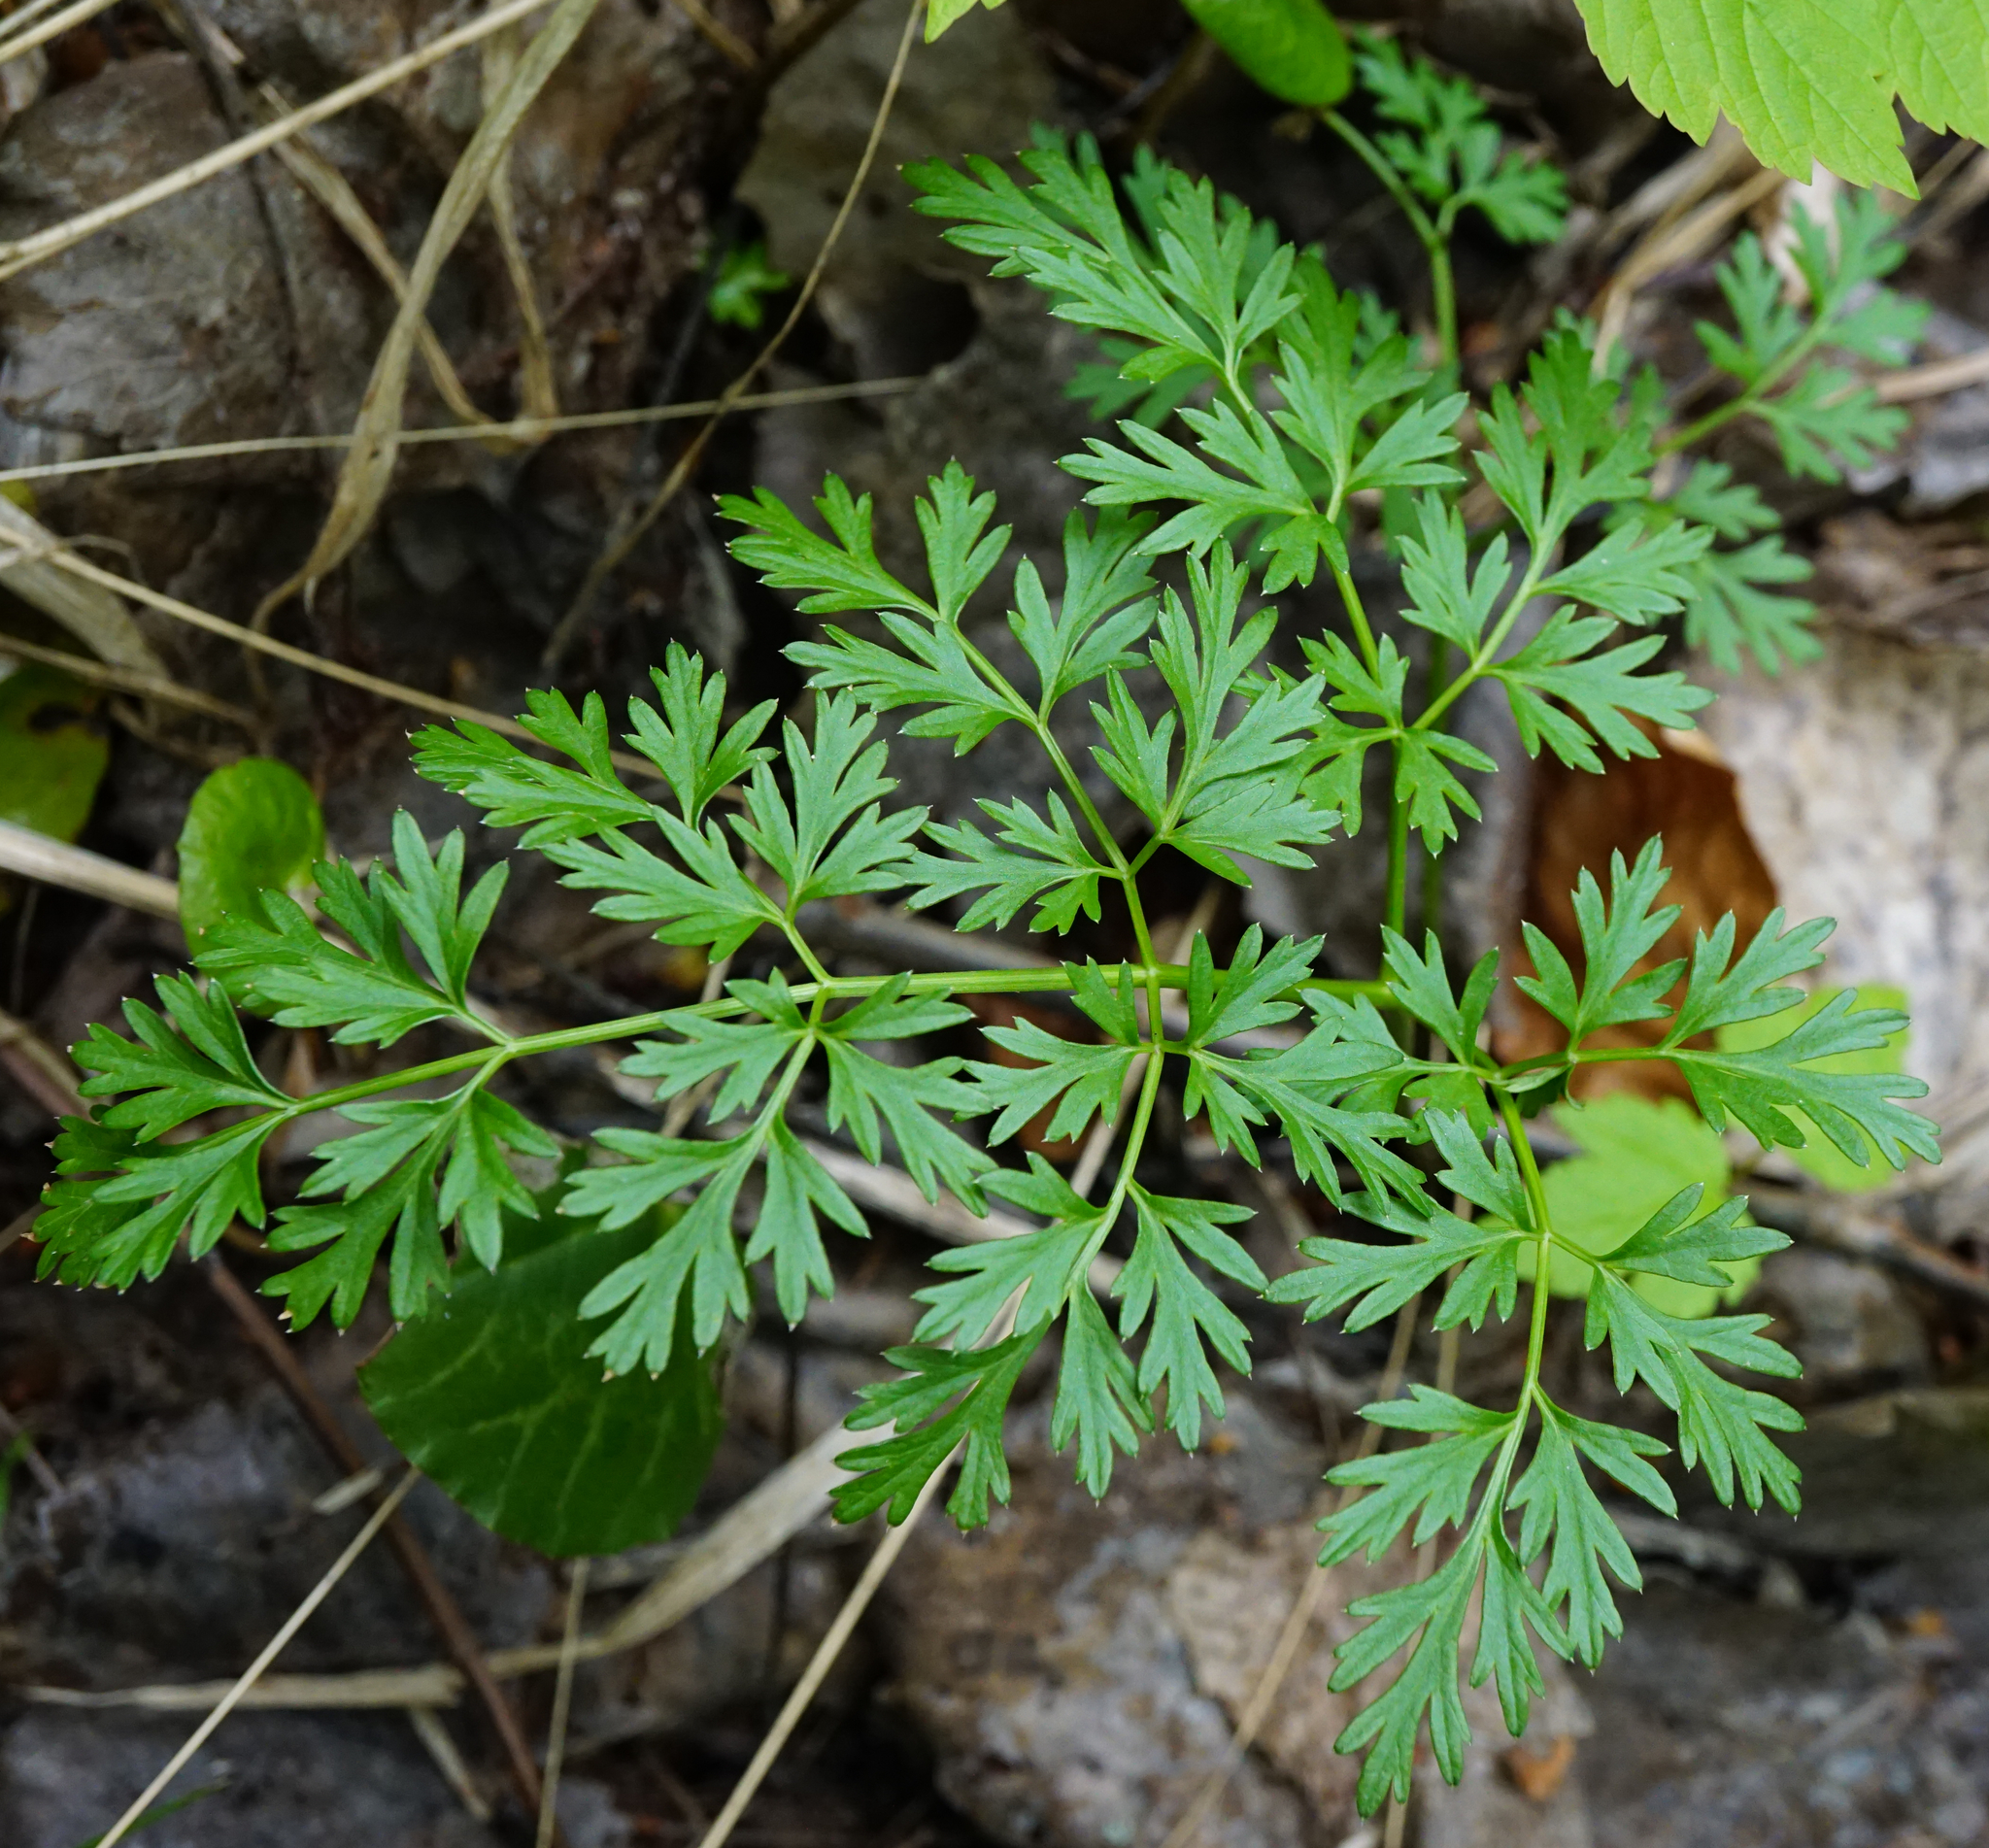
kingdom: Plantae
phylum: Tracheophyta
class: Magnoliopsida
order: Apiales
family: Apiaceae
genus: Peucedanum
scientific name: Peucedanum austriacum
